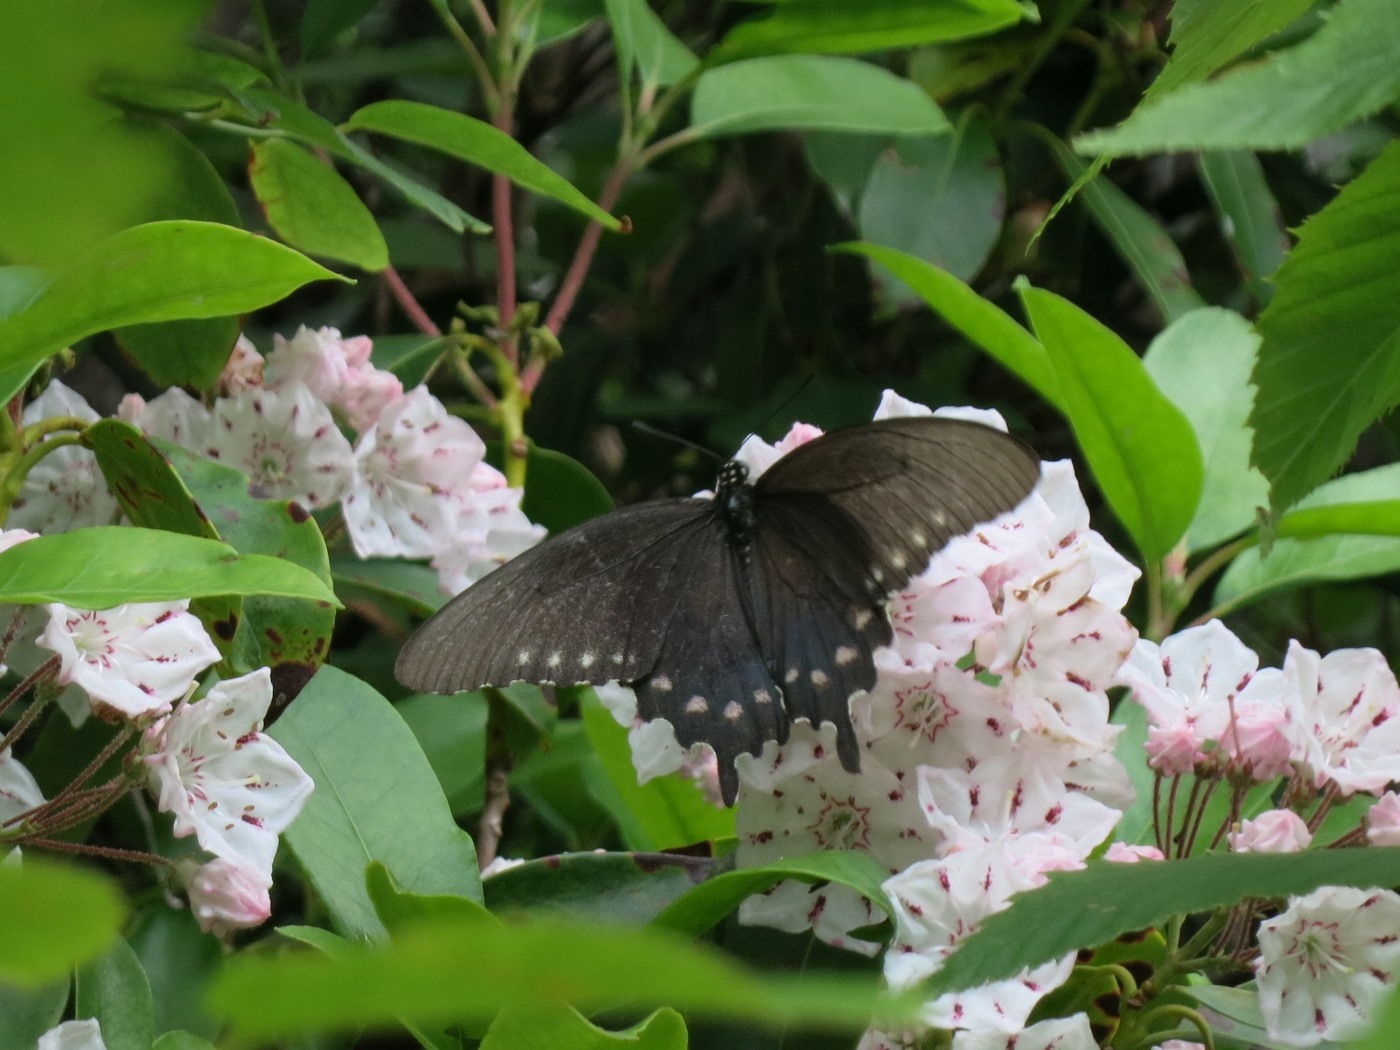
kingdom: Animalia
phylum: Arthropoda
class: Insecta
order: Lepidoptera
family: Papilionidae
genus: Battus
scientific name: Battus philenor
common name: Pipevine swallowtail
